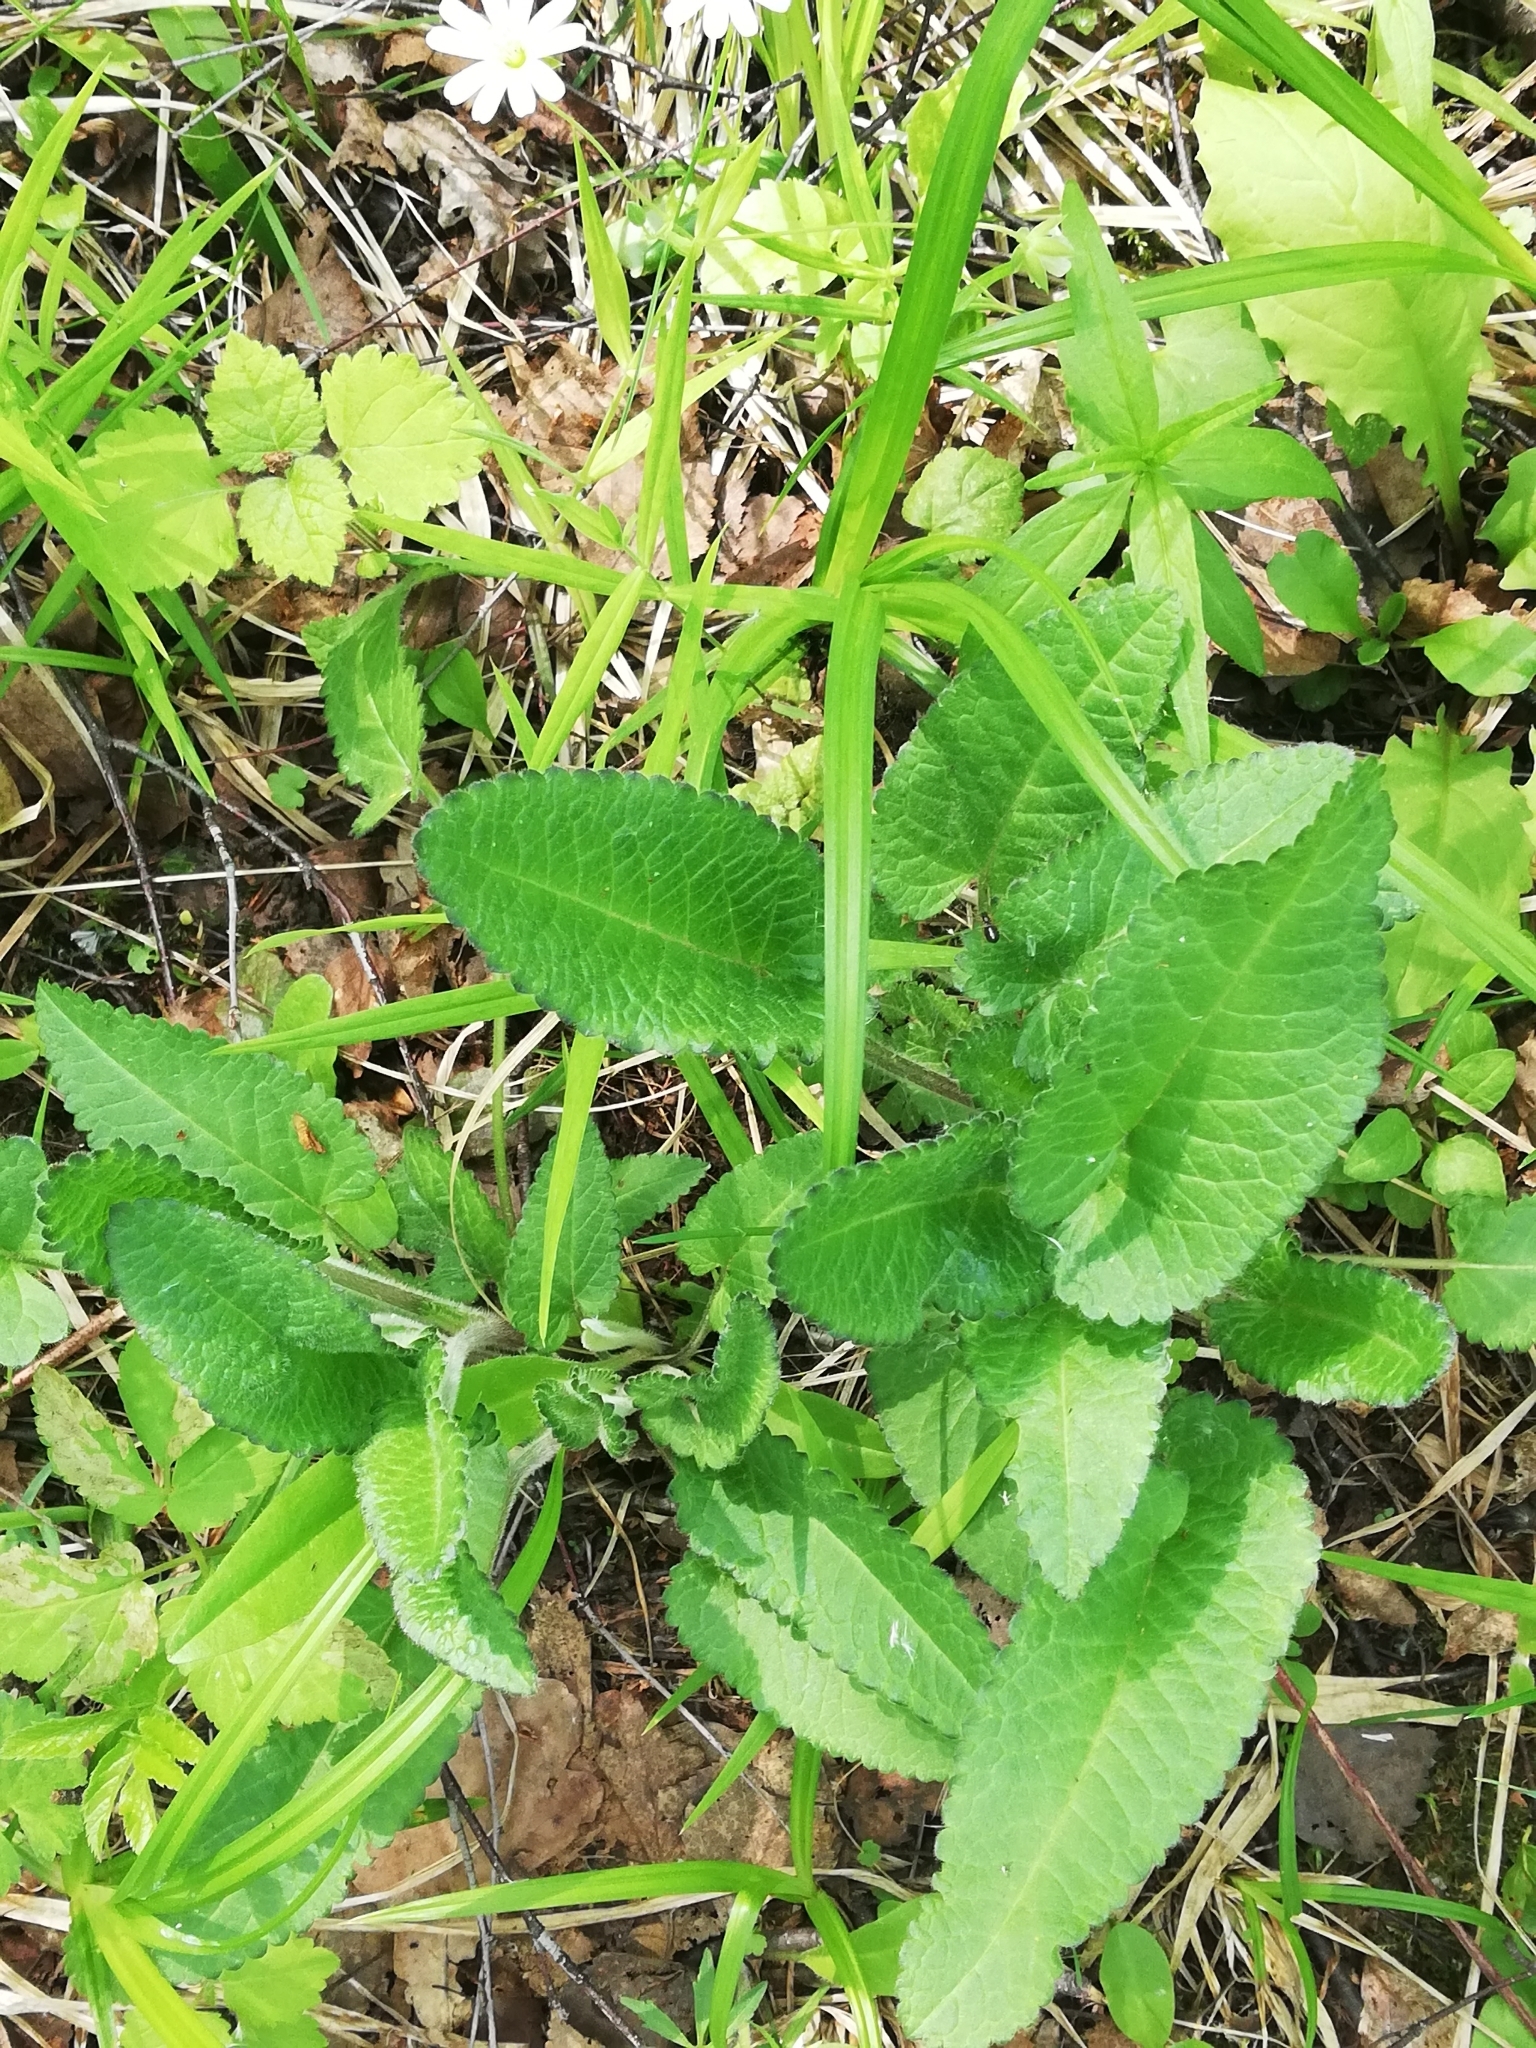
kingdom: Plantae
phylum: Tracheophyta
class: Magnoliopsida
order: Lamiales
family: Lamiaceae
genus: Betonica
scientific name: Betonica officinalis
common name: Bishop's-wort
